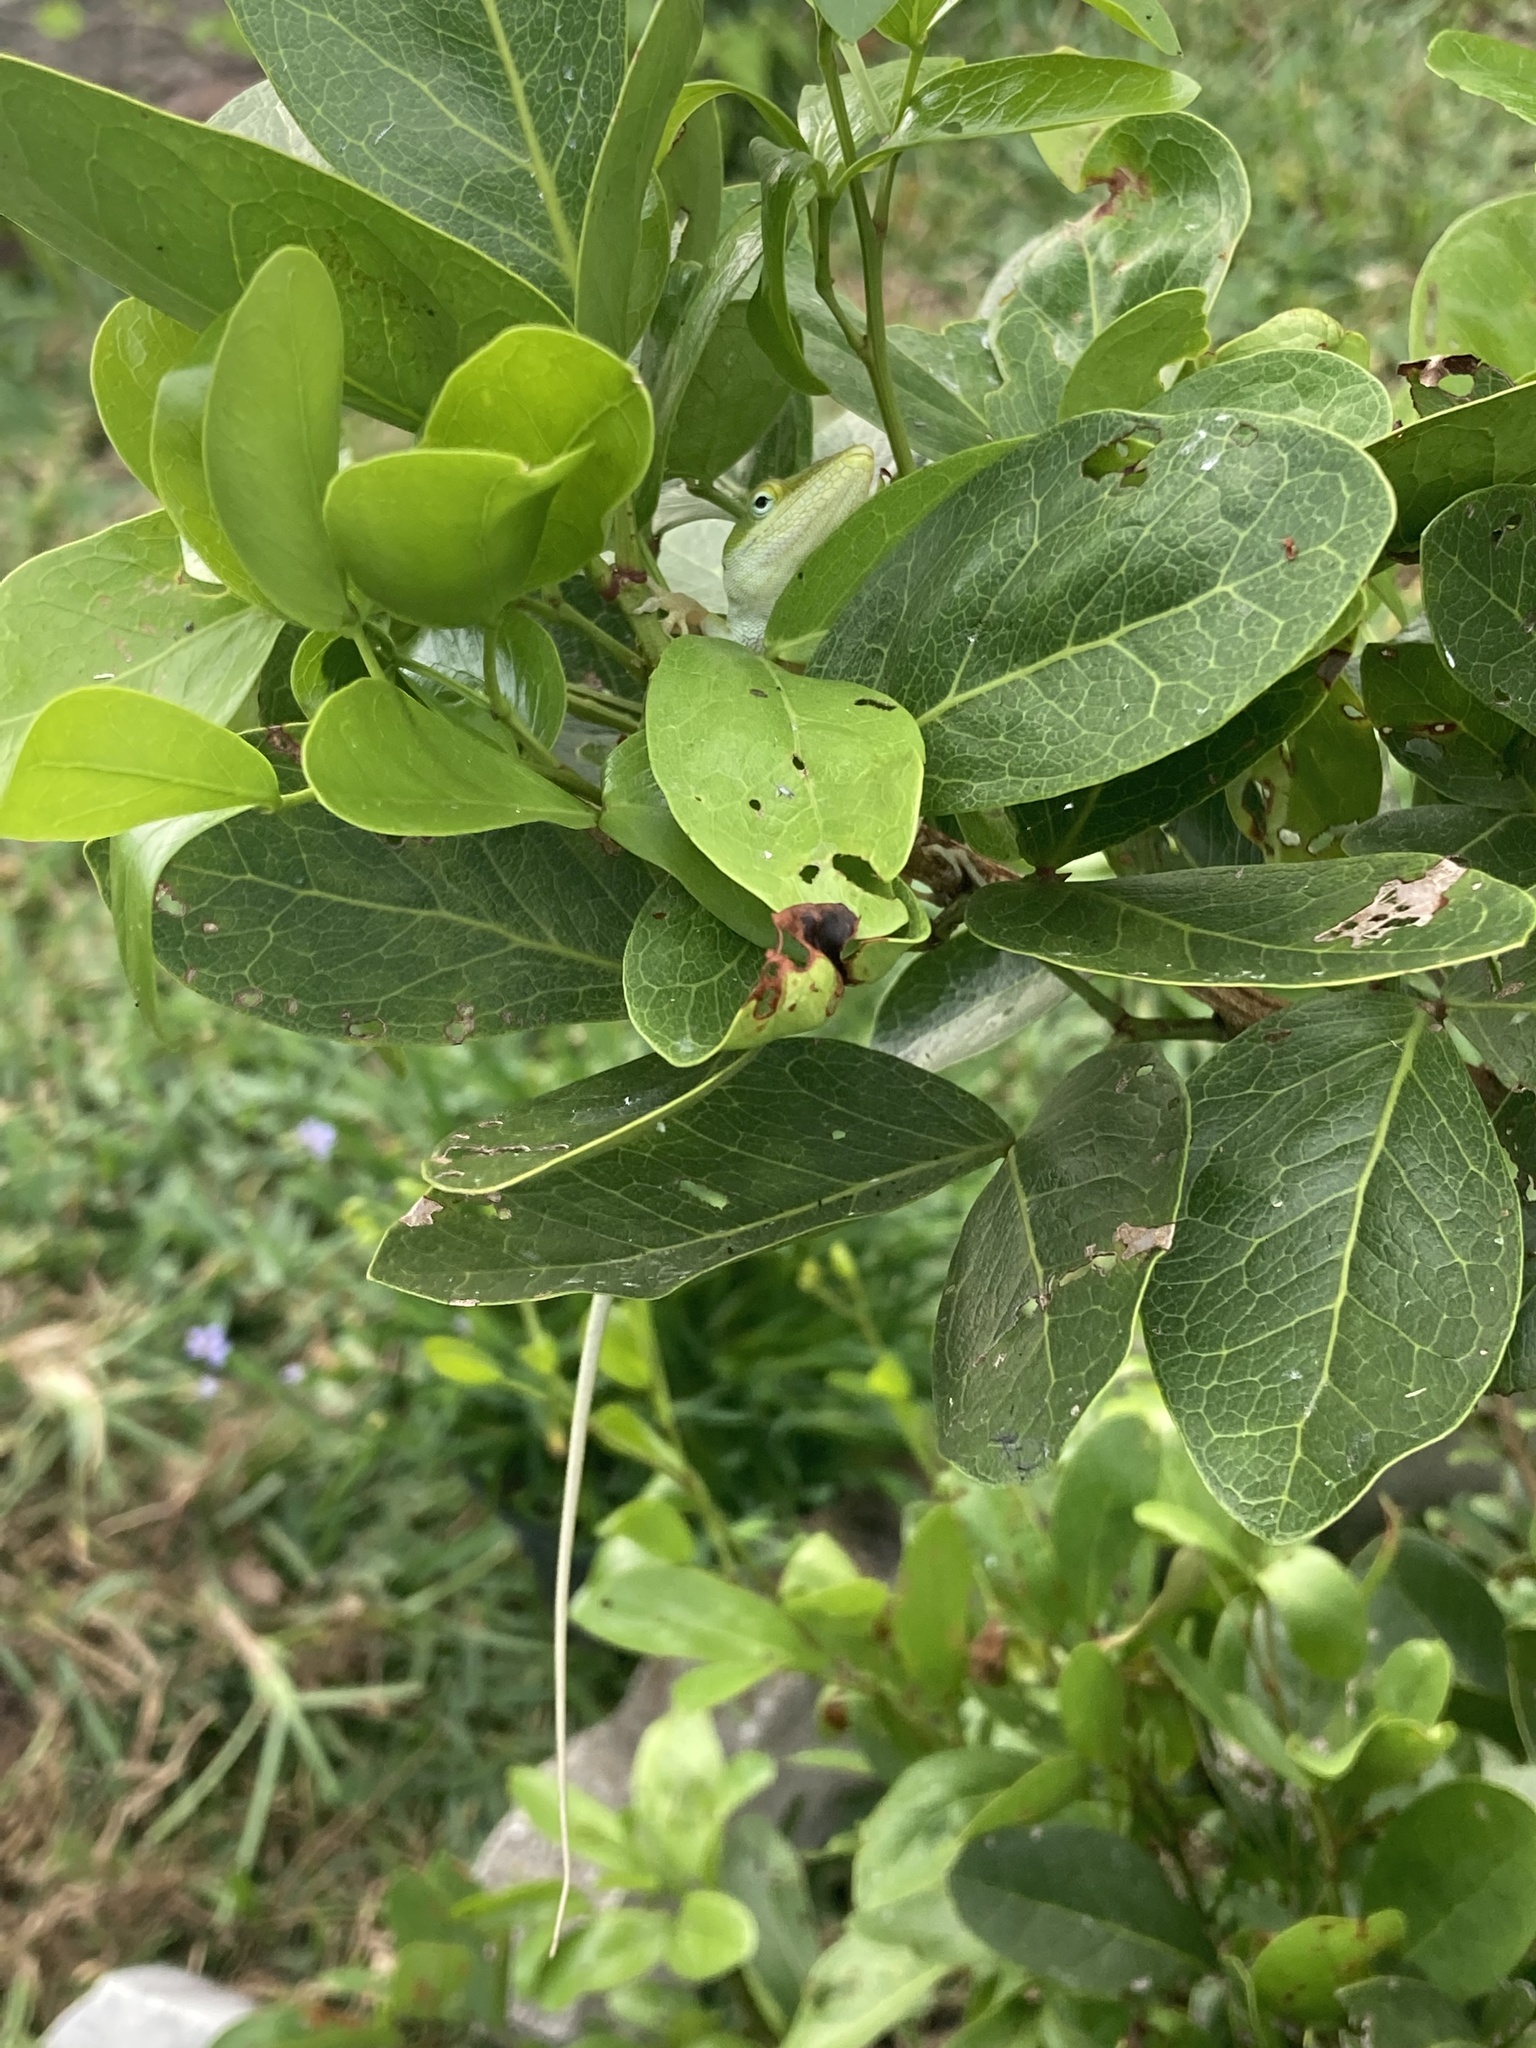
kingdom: Animalia
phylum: Chordata
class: Squamata
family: Dactyloidae
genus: Anolis
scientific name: Anolis carolinensis
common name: Green anole
